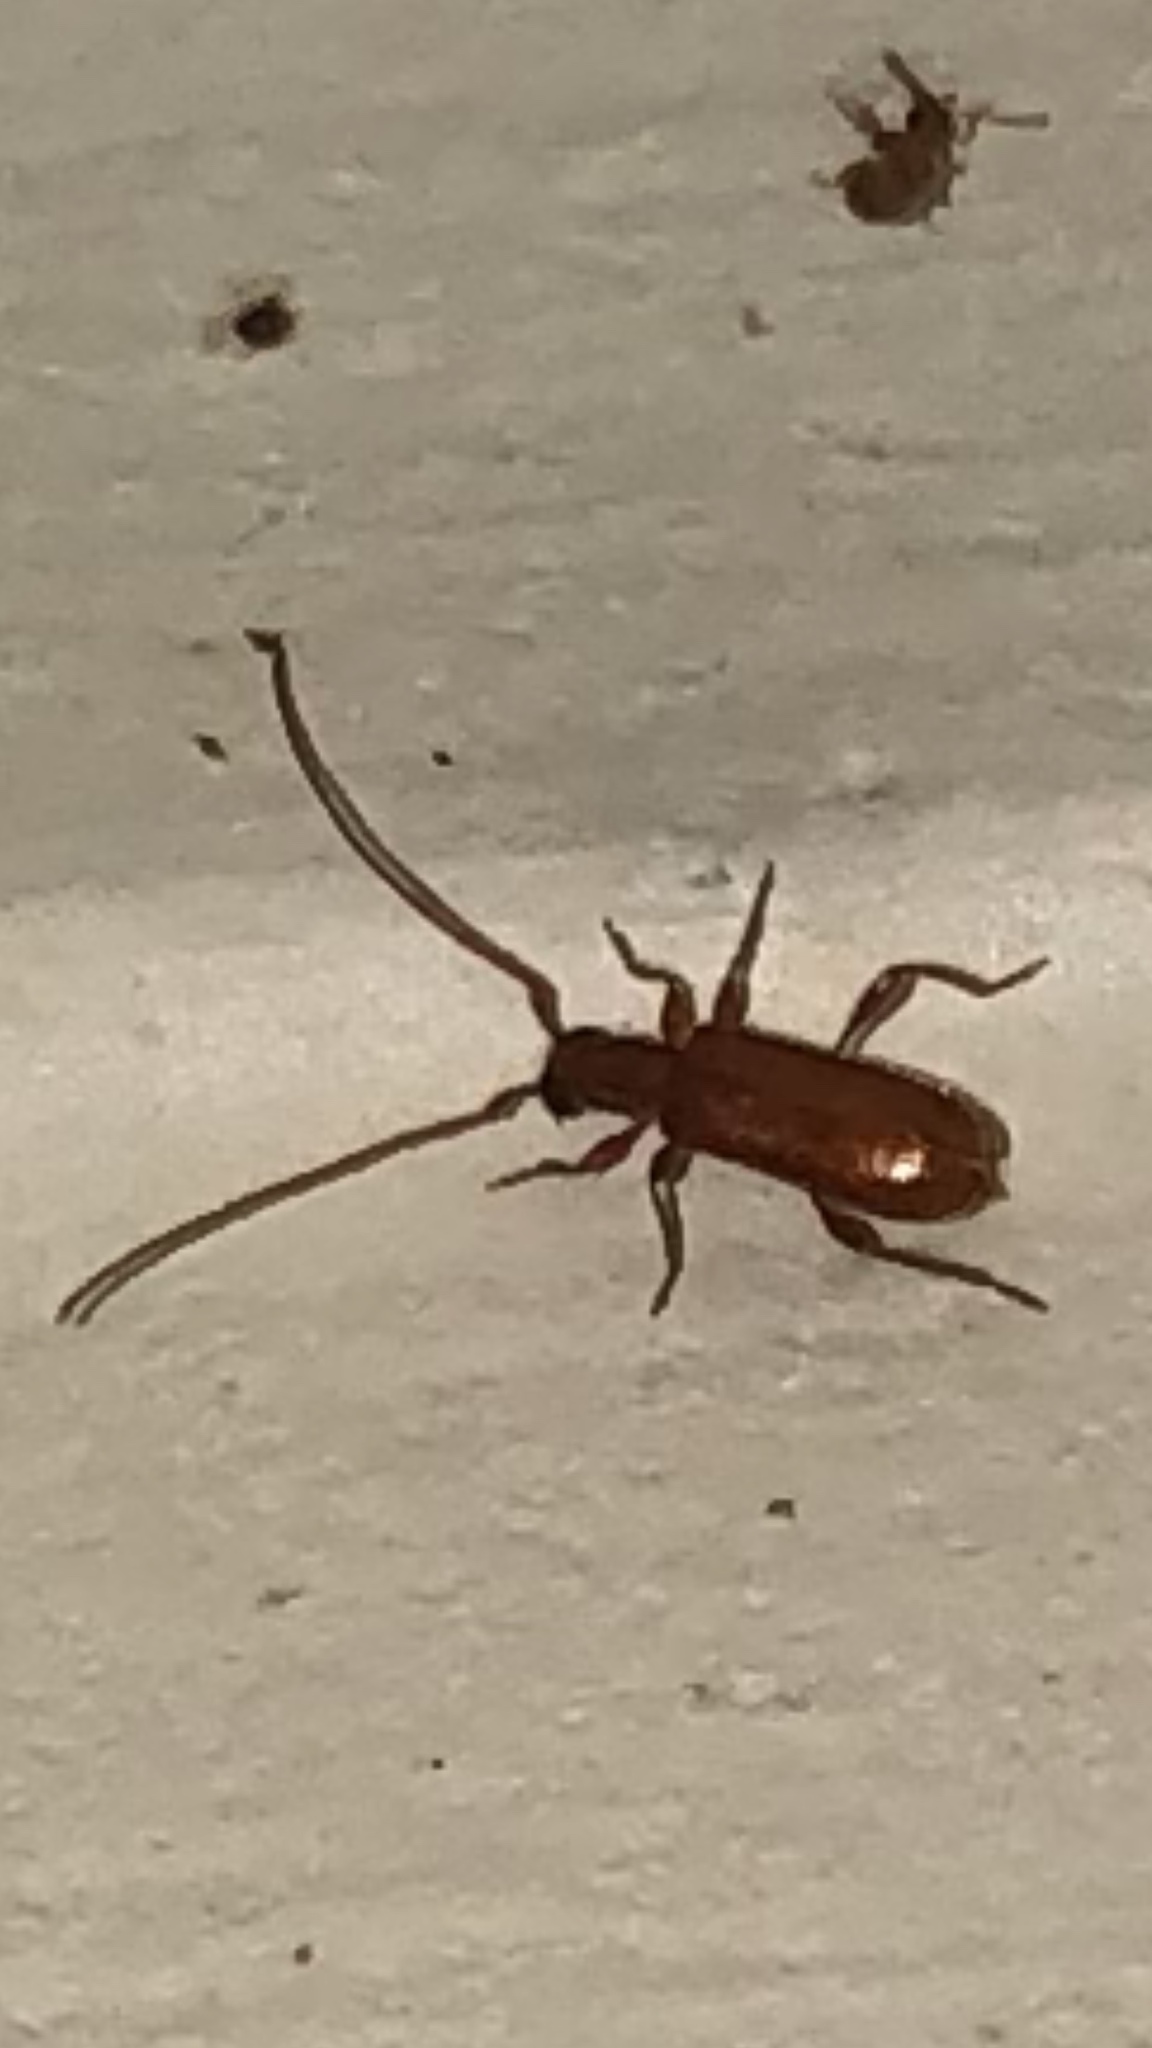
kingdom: Animalia
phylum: Arthropoda
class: Insecta
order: Coleoptera
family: Cerambycidae
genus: Smodicum
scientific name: Smodicum cucujiforme
